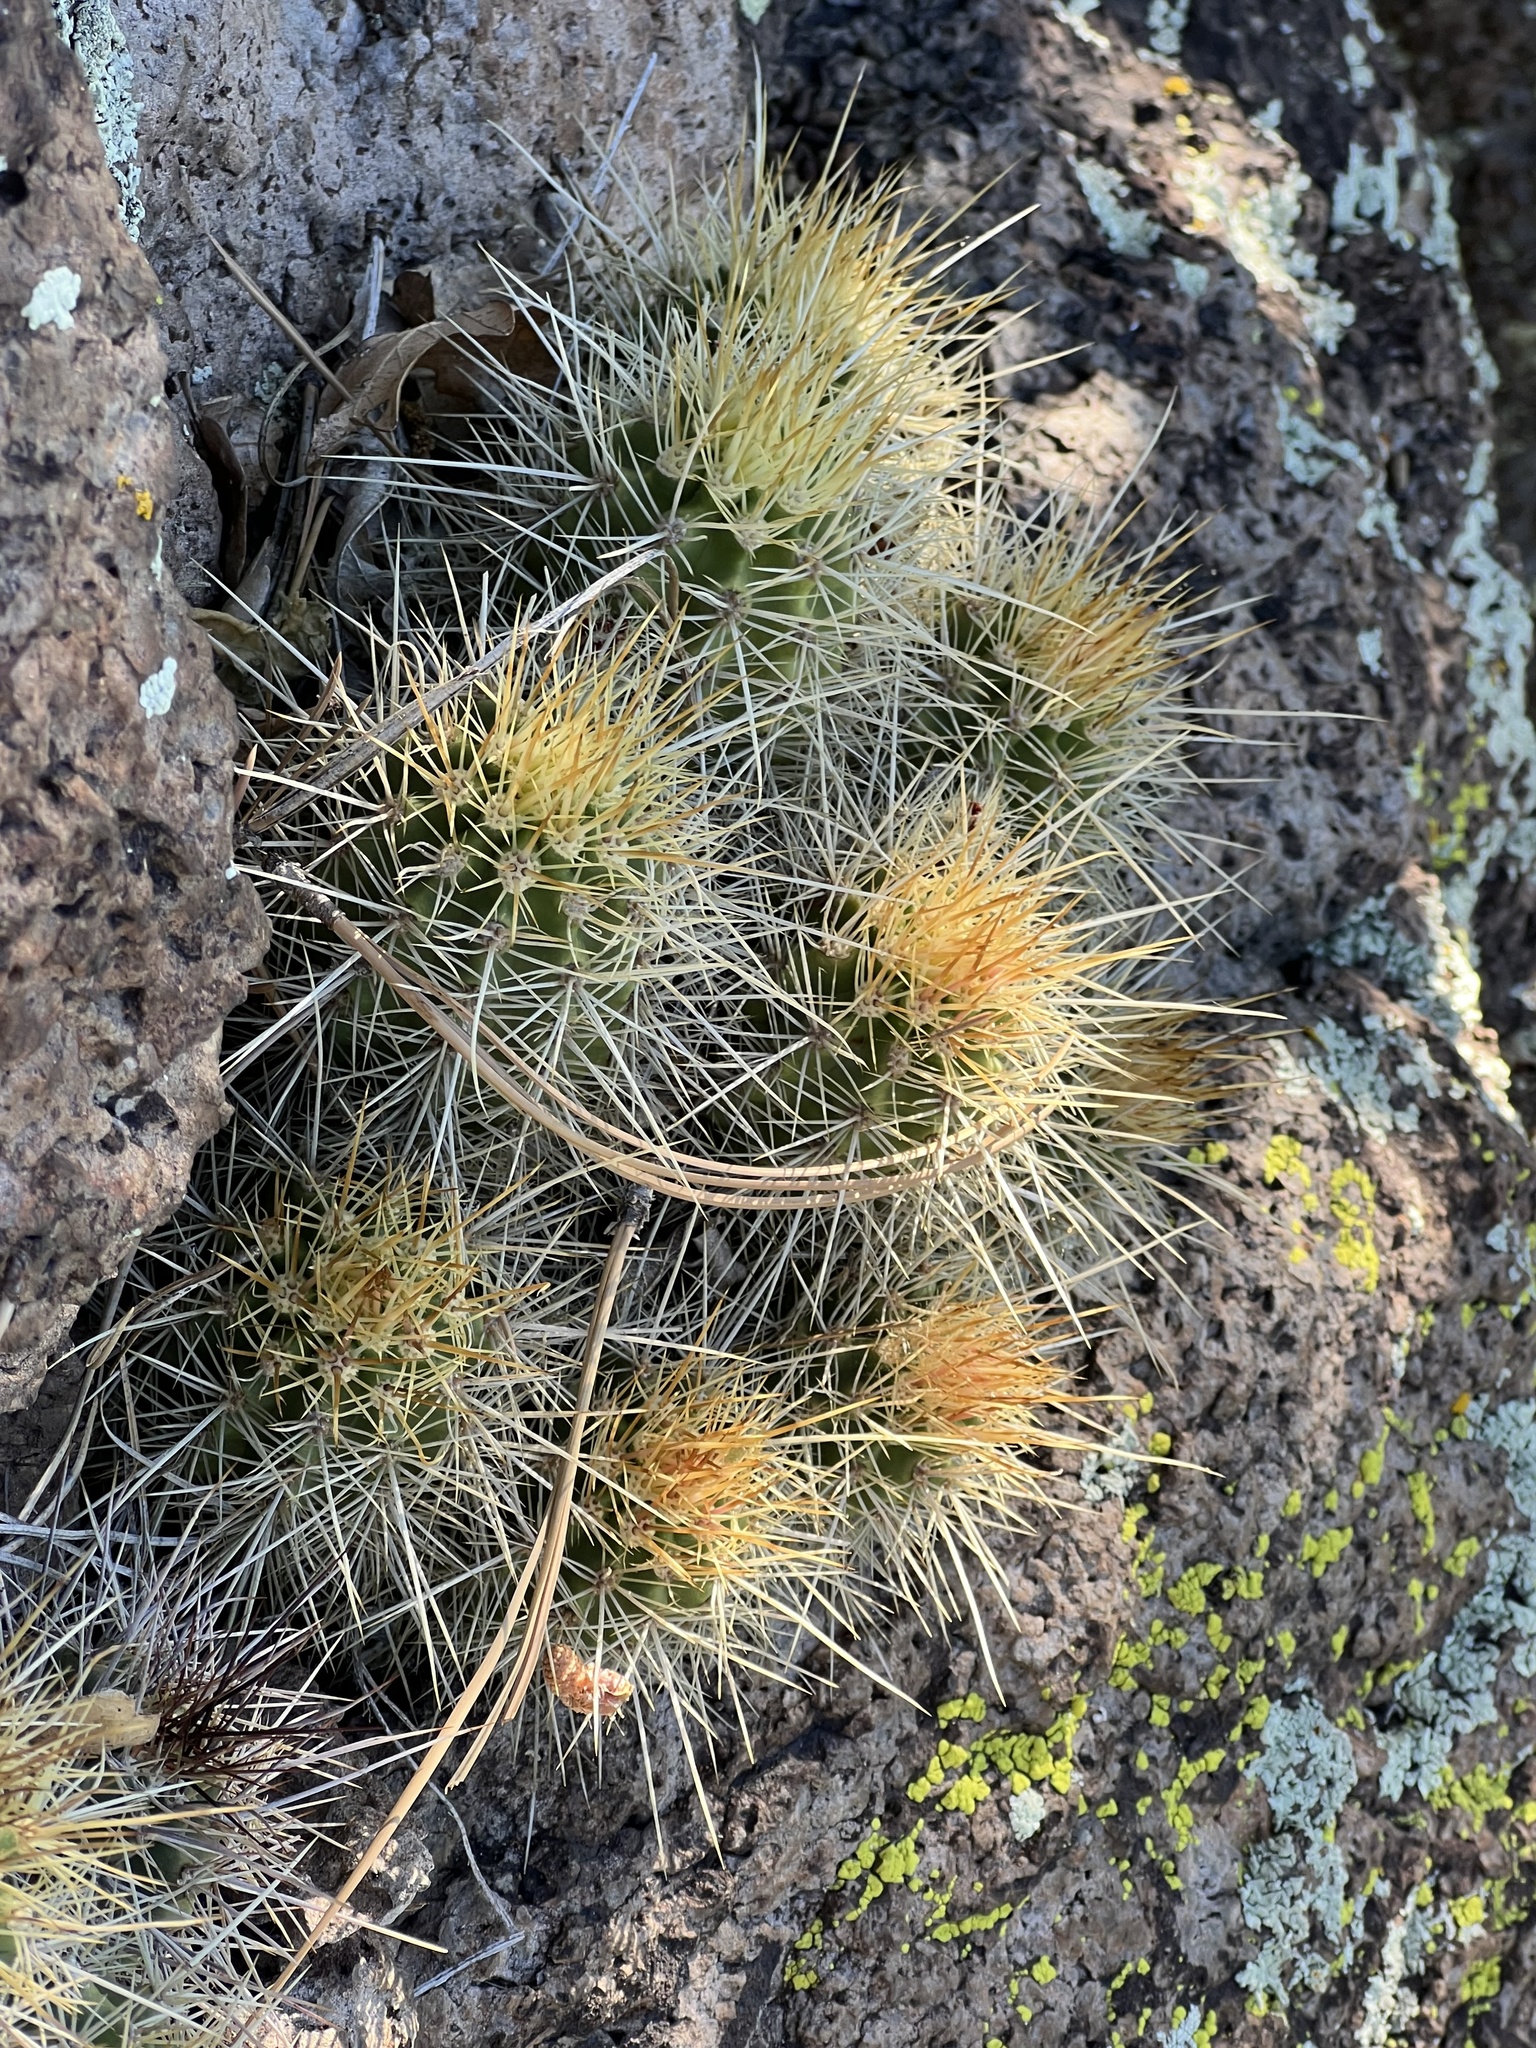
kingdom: Plantae
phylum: Tracheophyta
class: Magnoliopsida
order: Caryophyllales
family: Cactaceae
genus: Echinocereus
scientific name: Echinocereus bakeri
